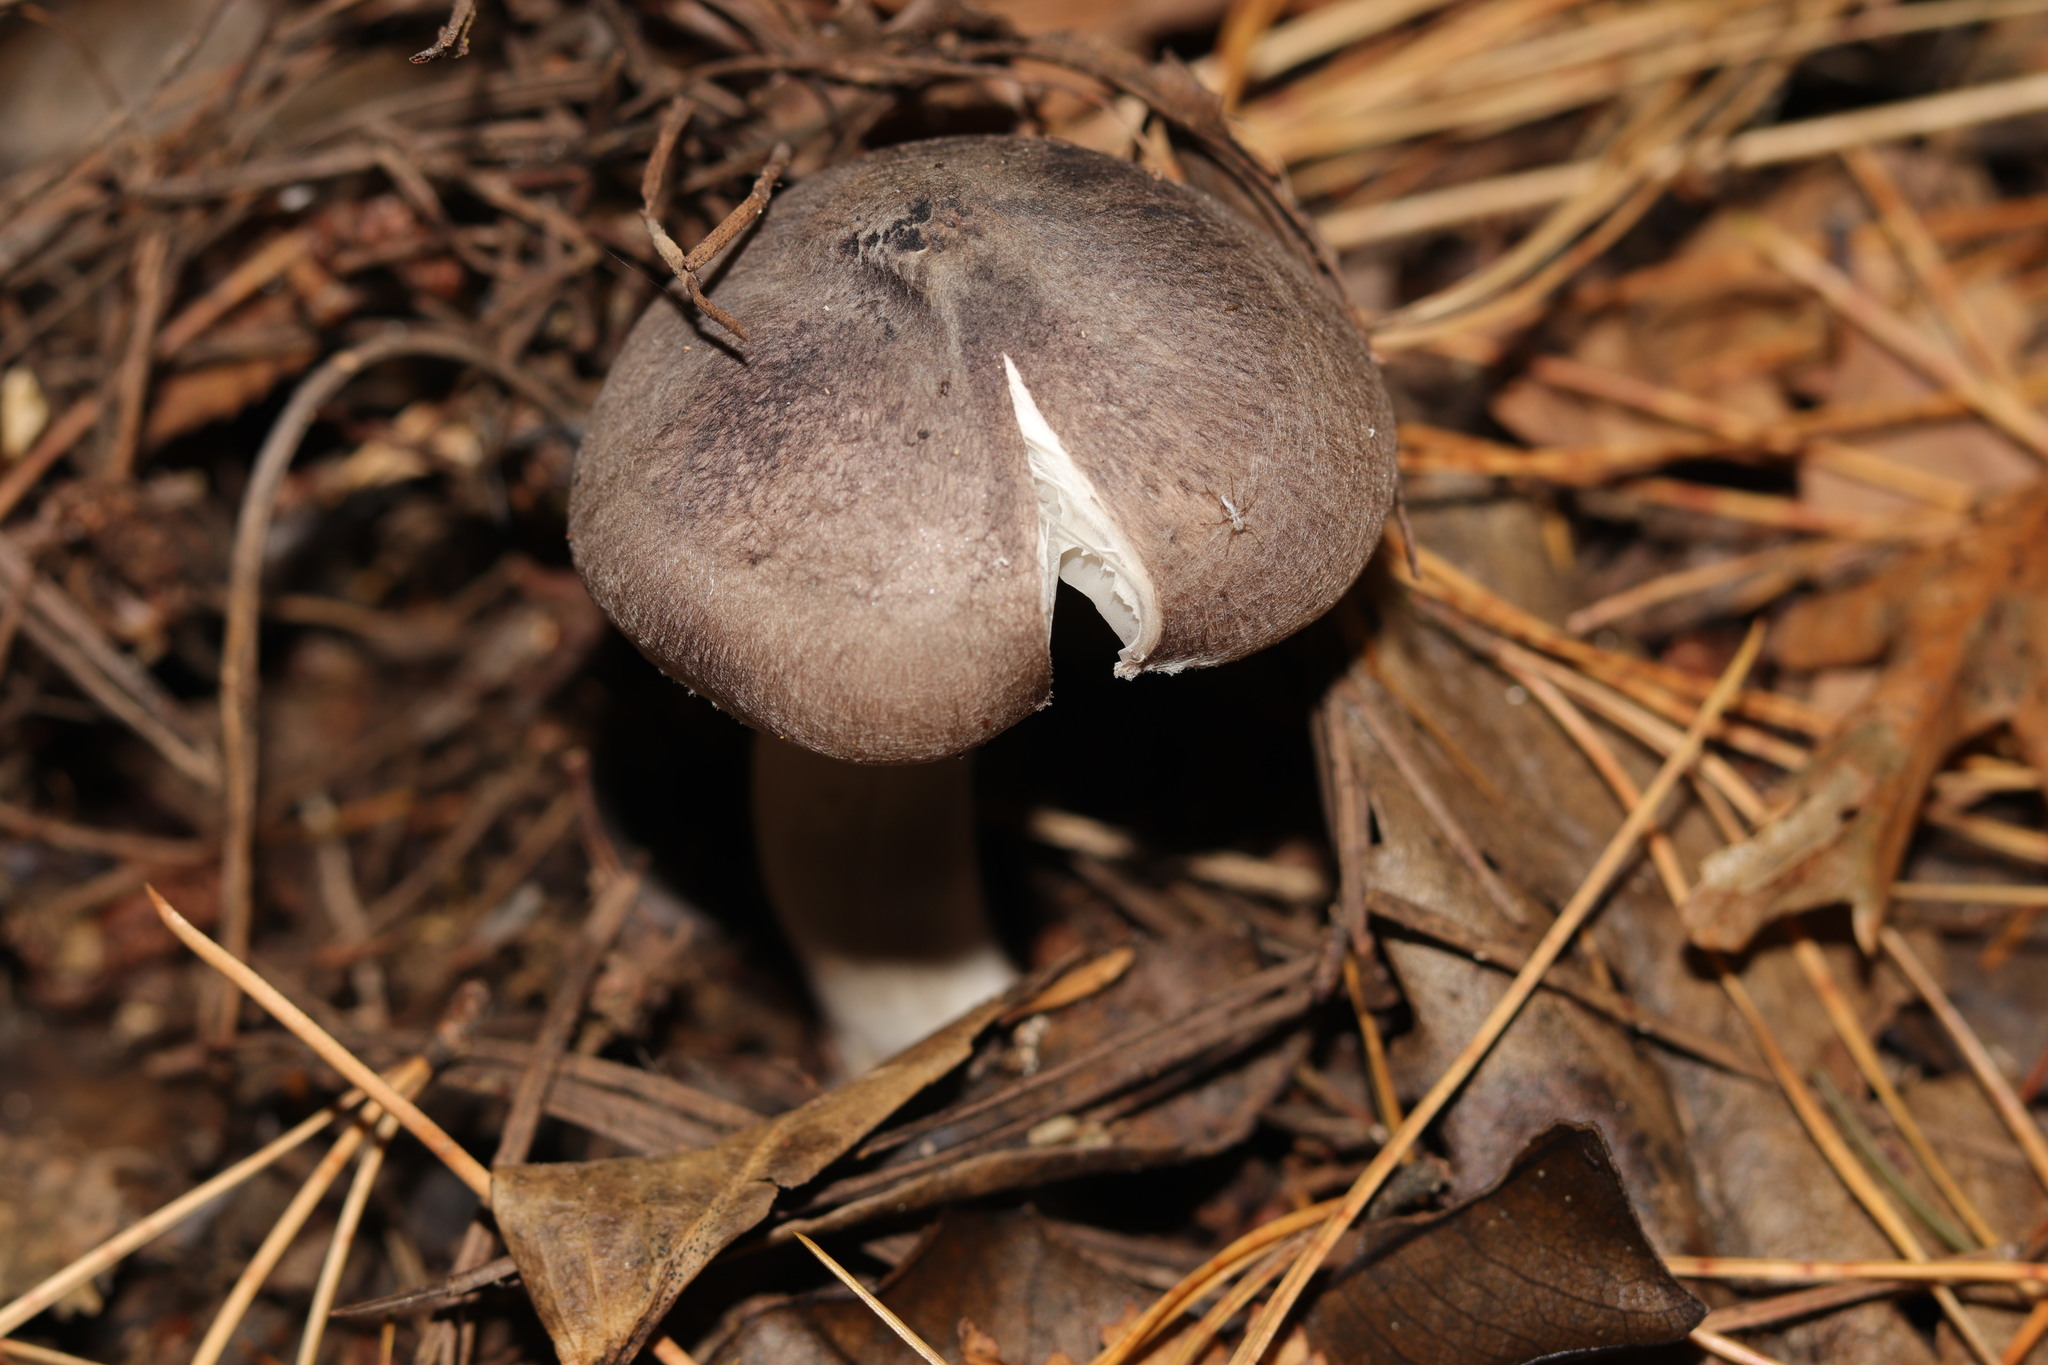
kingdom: Fungi
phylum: Basidiomycota
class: Agaricomycetes
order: Agaricales
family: Tricholomataceae
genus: Tricholoma
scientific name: Tricholoma terreum
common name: Grey knight
